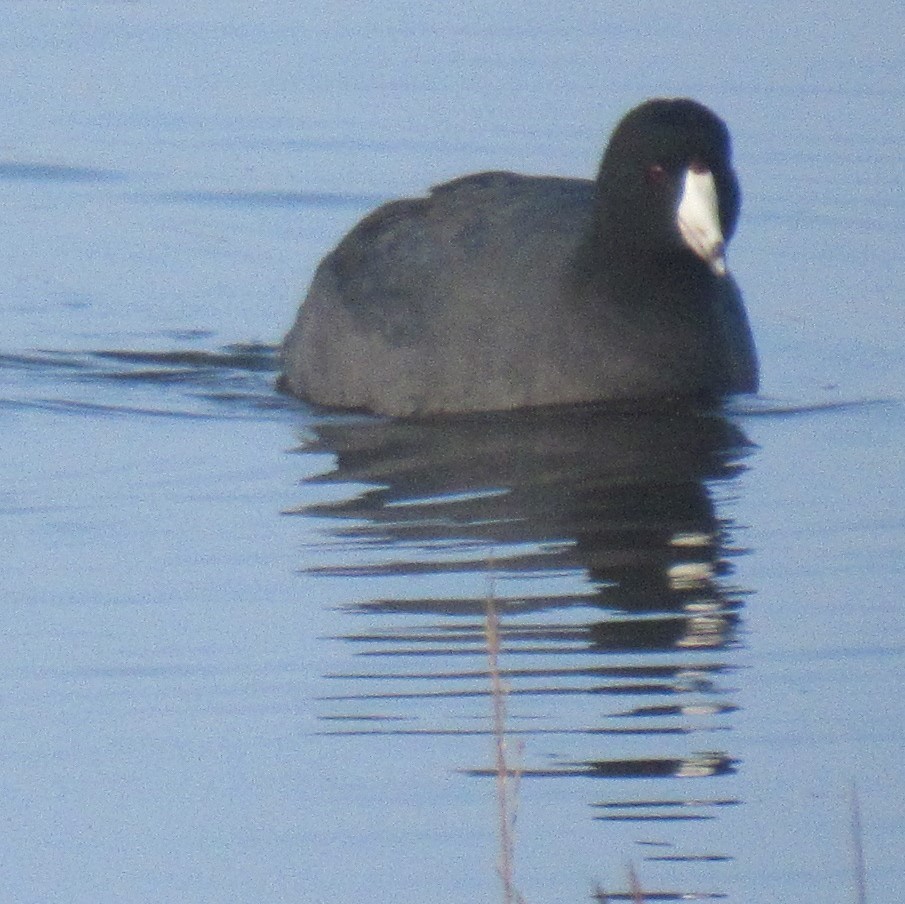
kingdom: Animalia
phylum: Chordata
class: Aves
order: Gruiformes
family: Rallidae
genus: Fulica
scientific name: Fulica americana
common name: American coot
